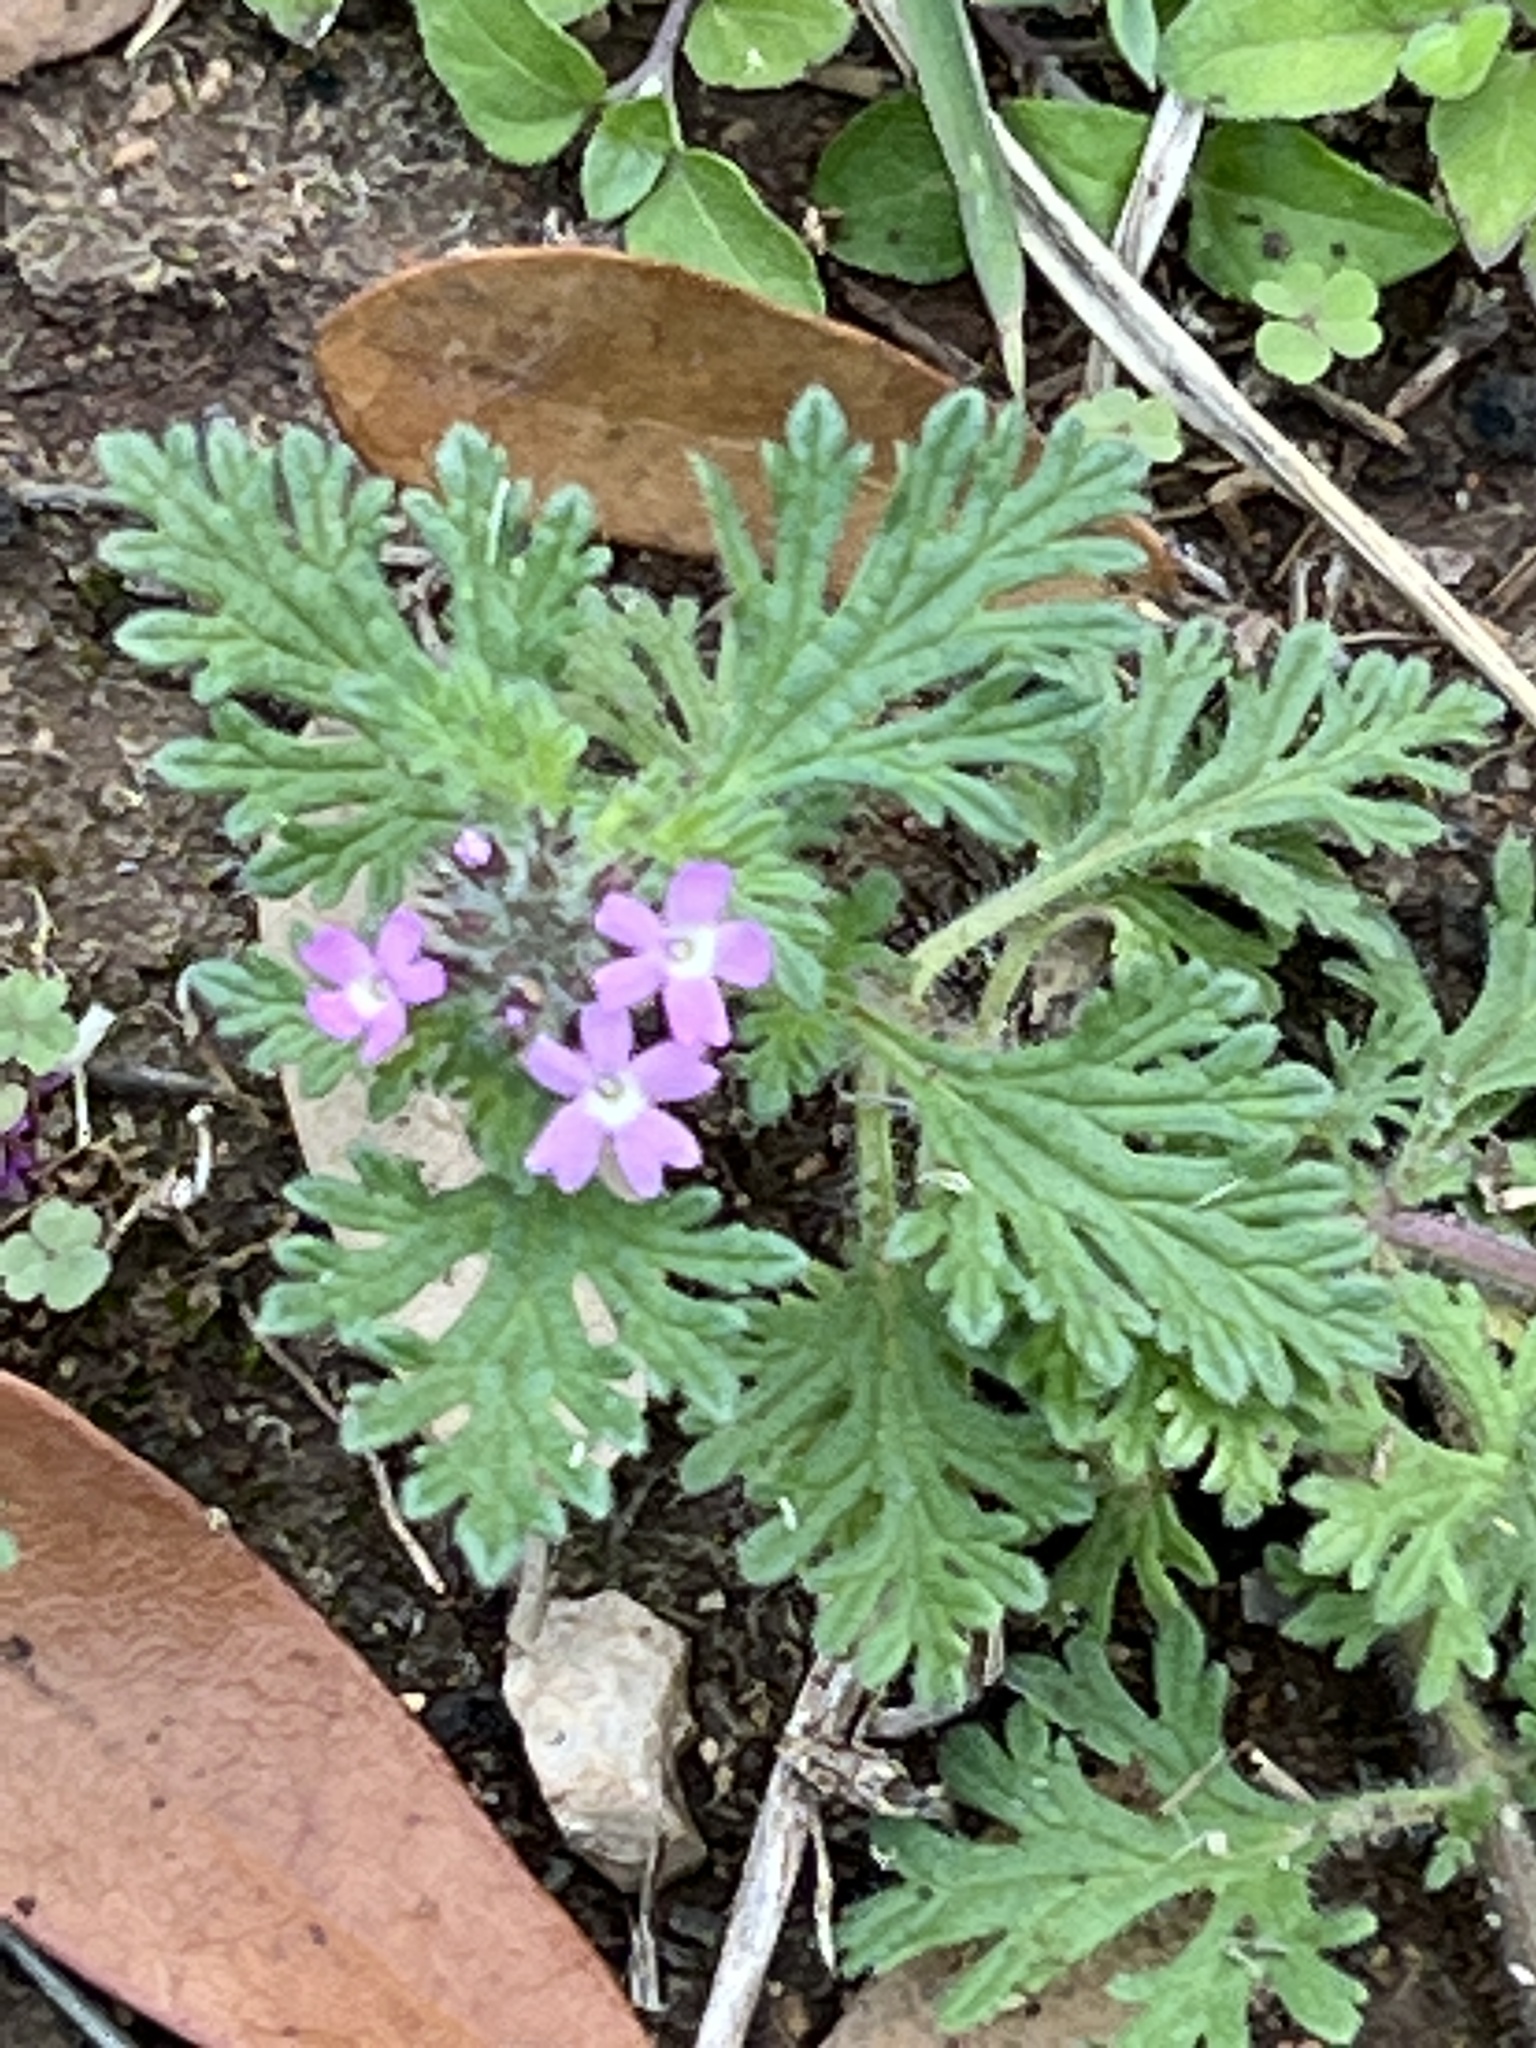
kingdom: Plantae
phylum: Tracheophyta
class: Magnoliopsida
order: Lamiales
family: Verbenaceae
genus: Verbena
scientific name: Verbena pumila
